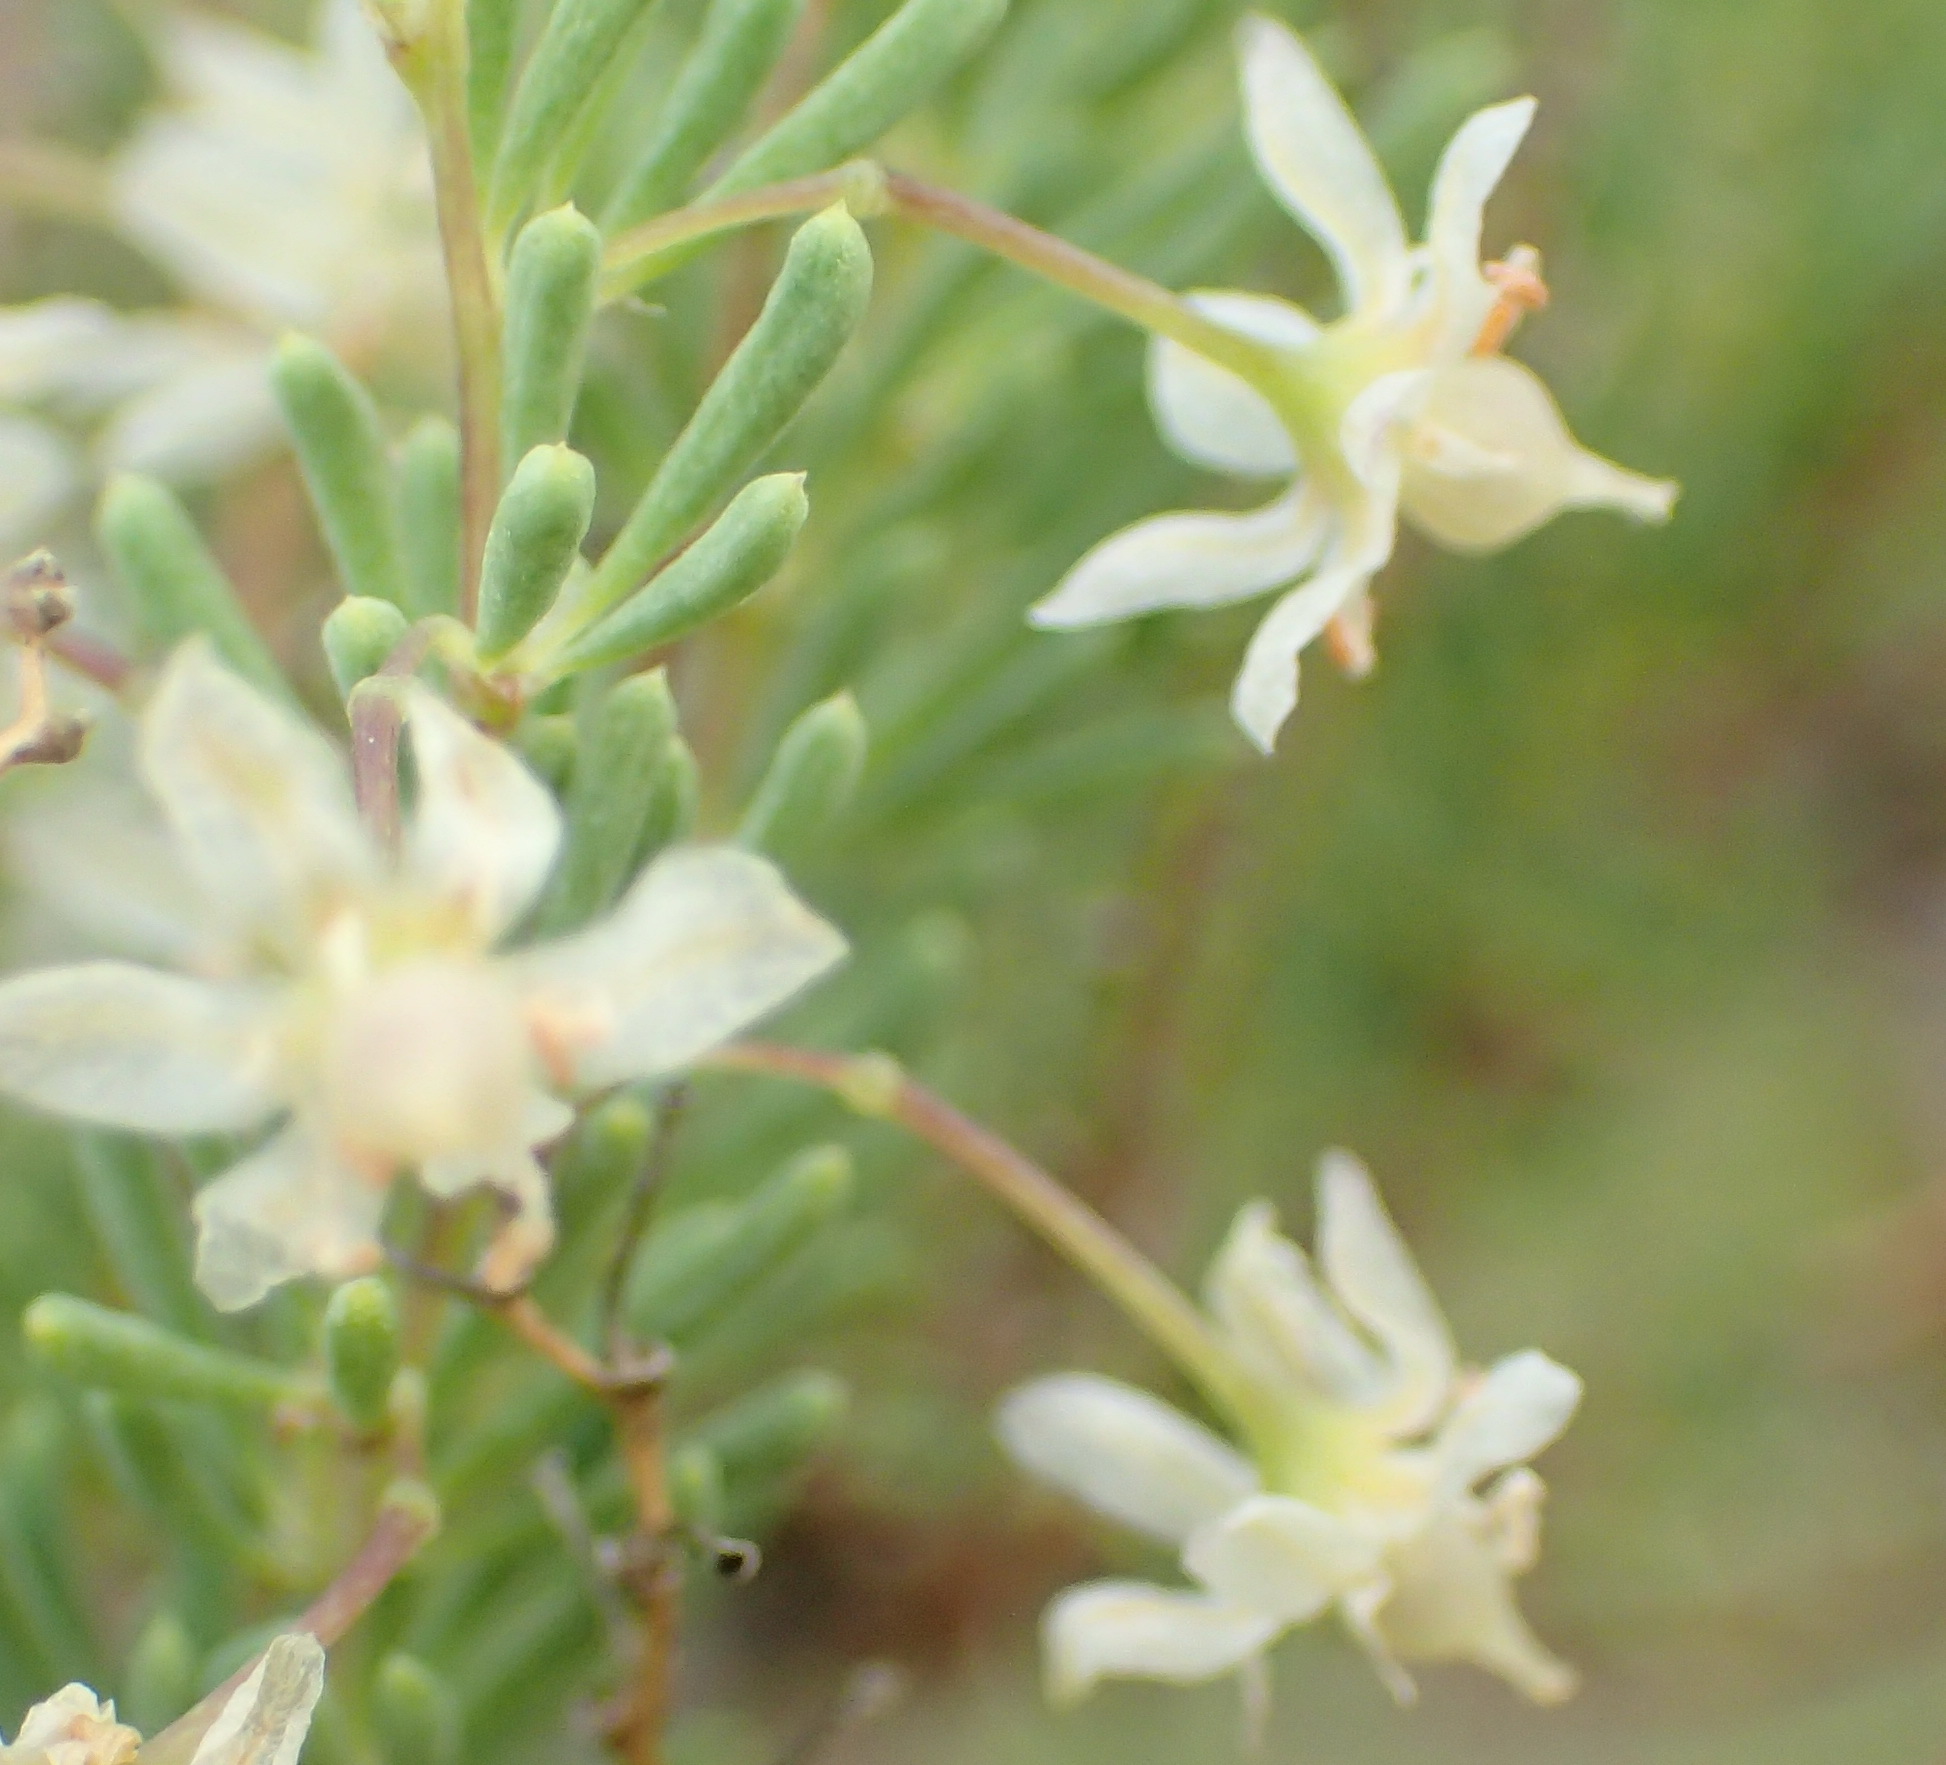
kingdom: Plantae
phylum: Tracheophyta
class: Liliopsida
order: Asparagales
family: Asparagaceae
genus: Asparagus
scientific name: Asparagus rubicundus
